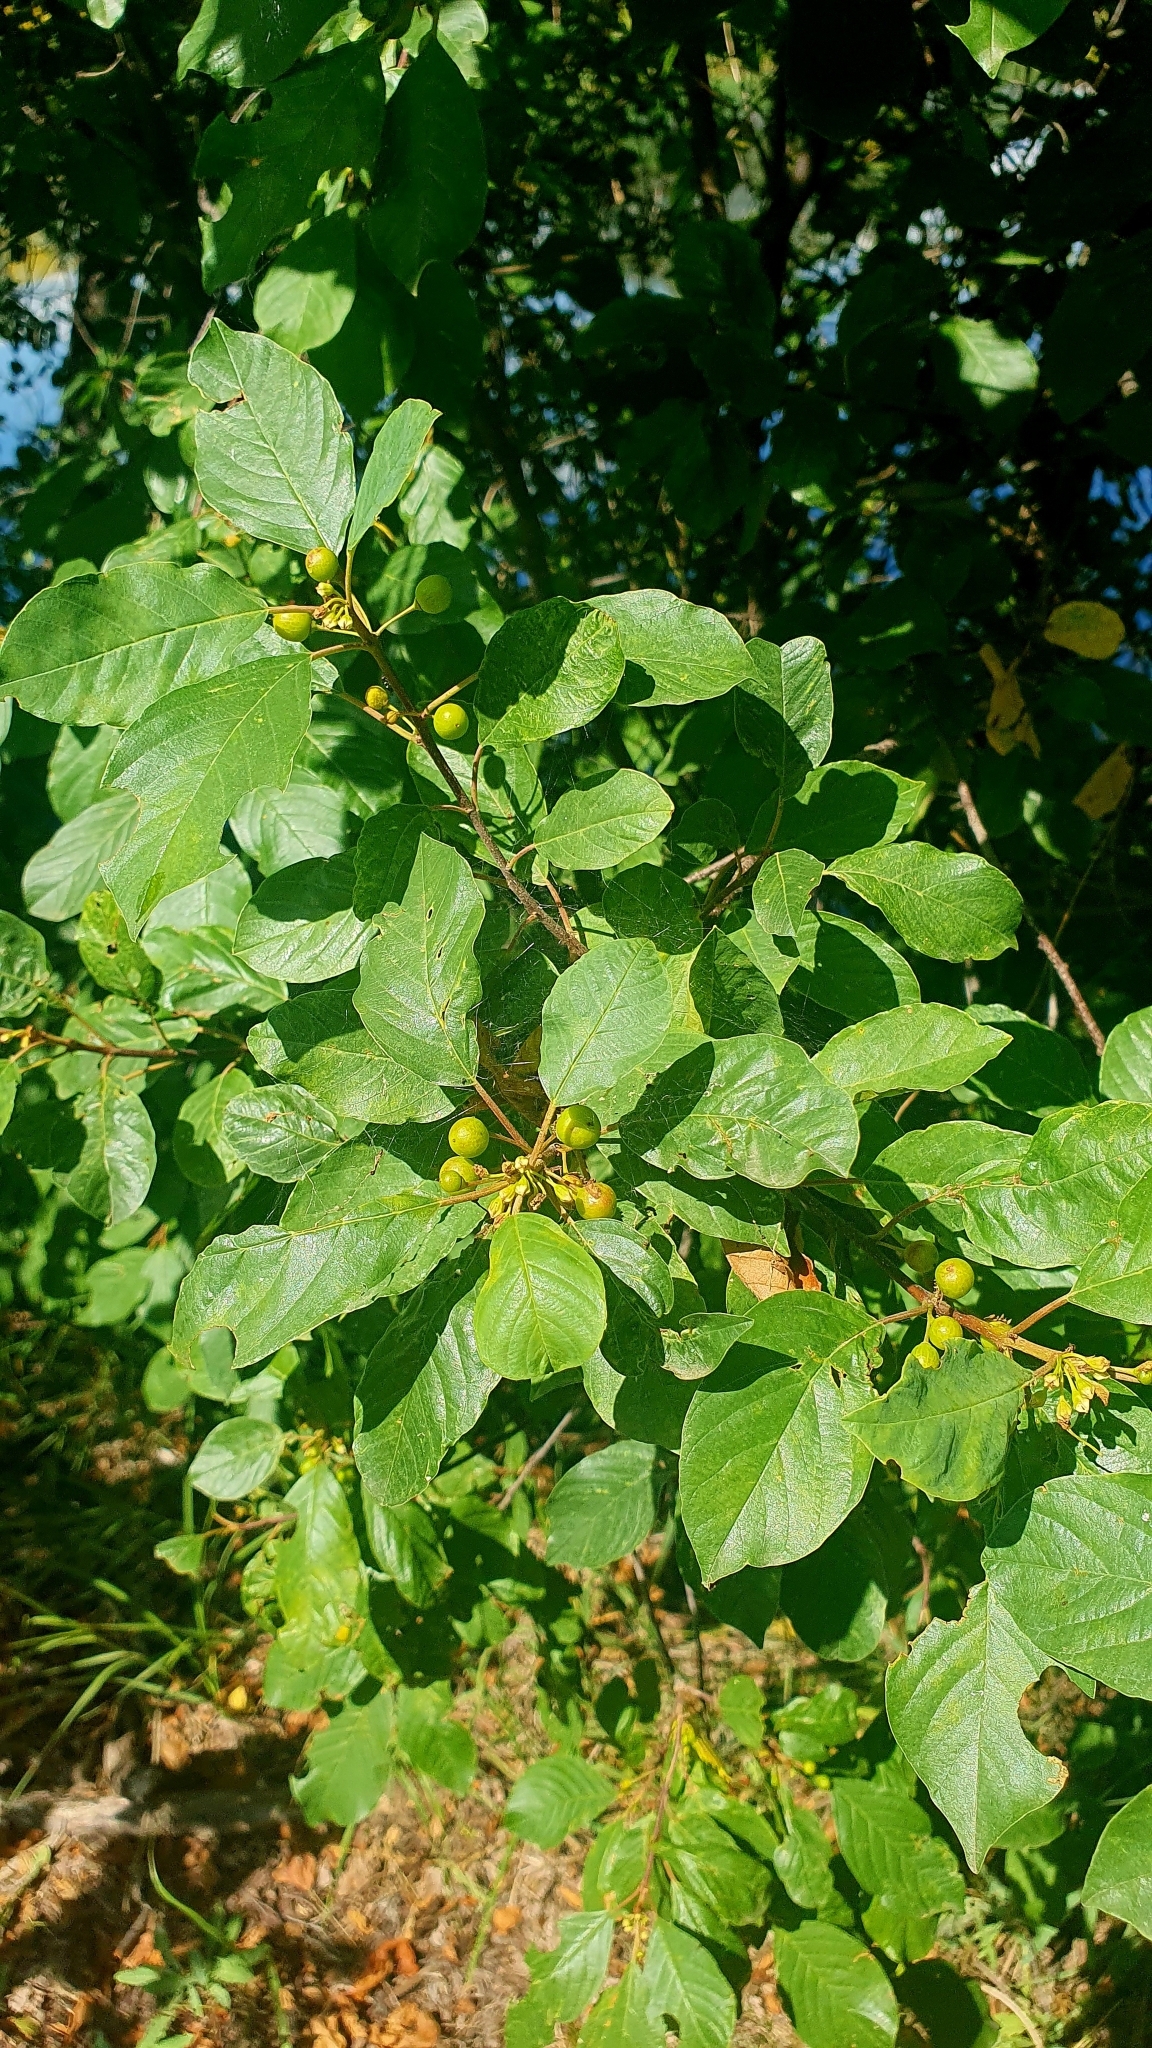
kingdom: Plantae
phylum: Tracheophyta
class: Magnoliopsida
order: Rosales
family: Rhamnaceae
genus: Frangula
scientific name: Frangula alnus
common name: Alder buckthorn
